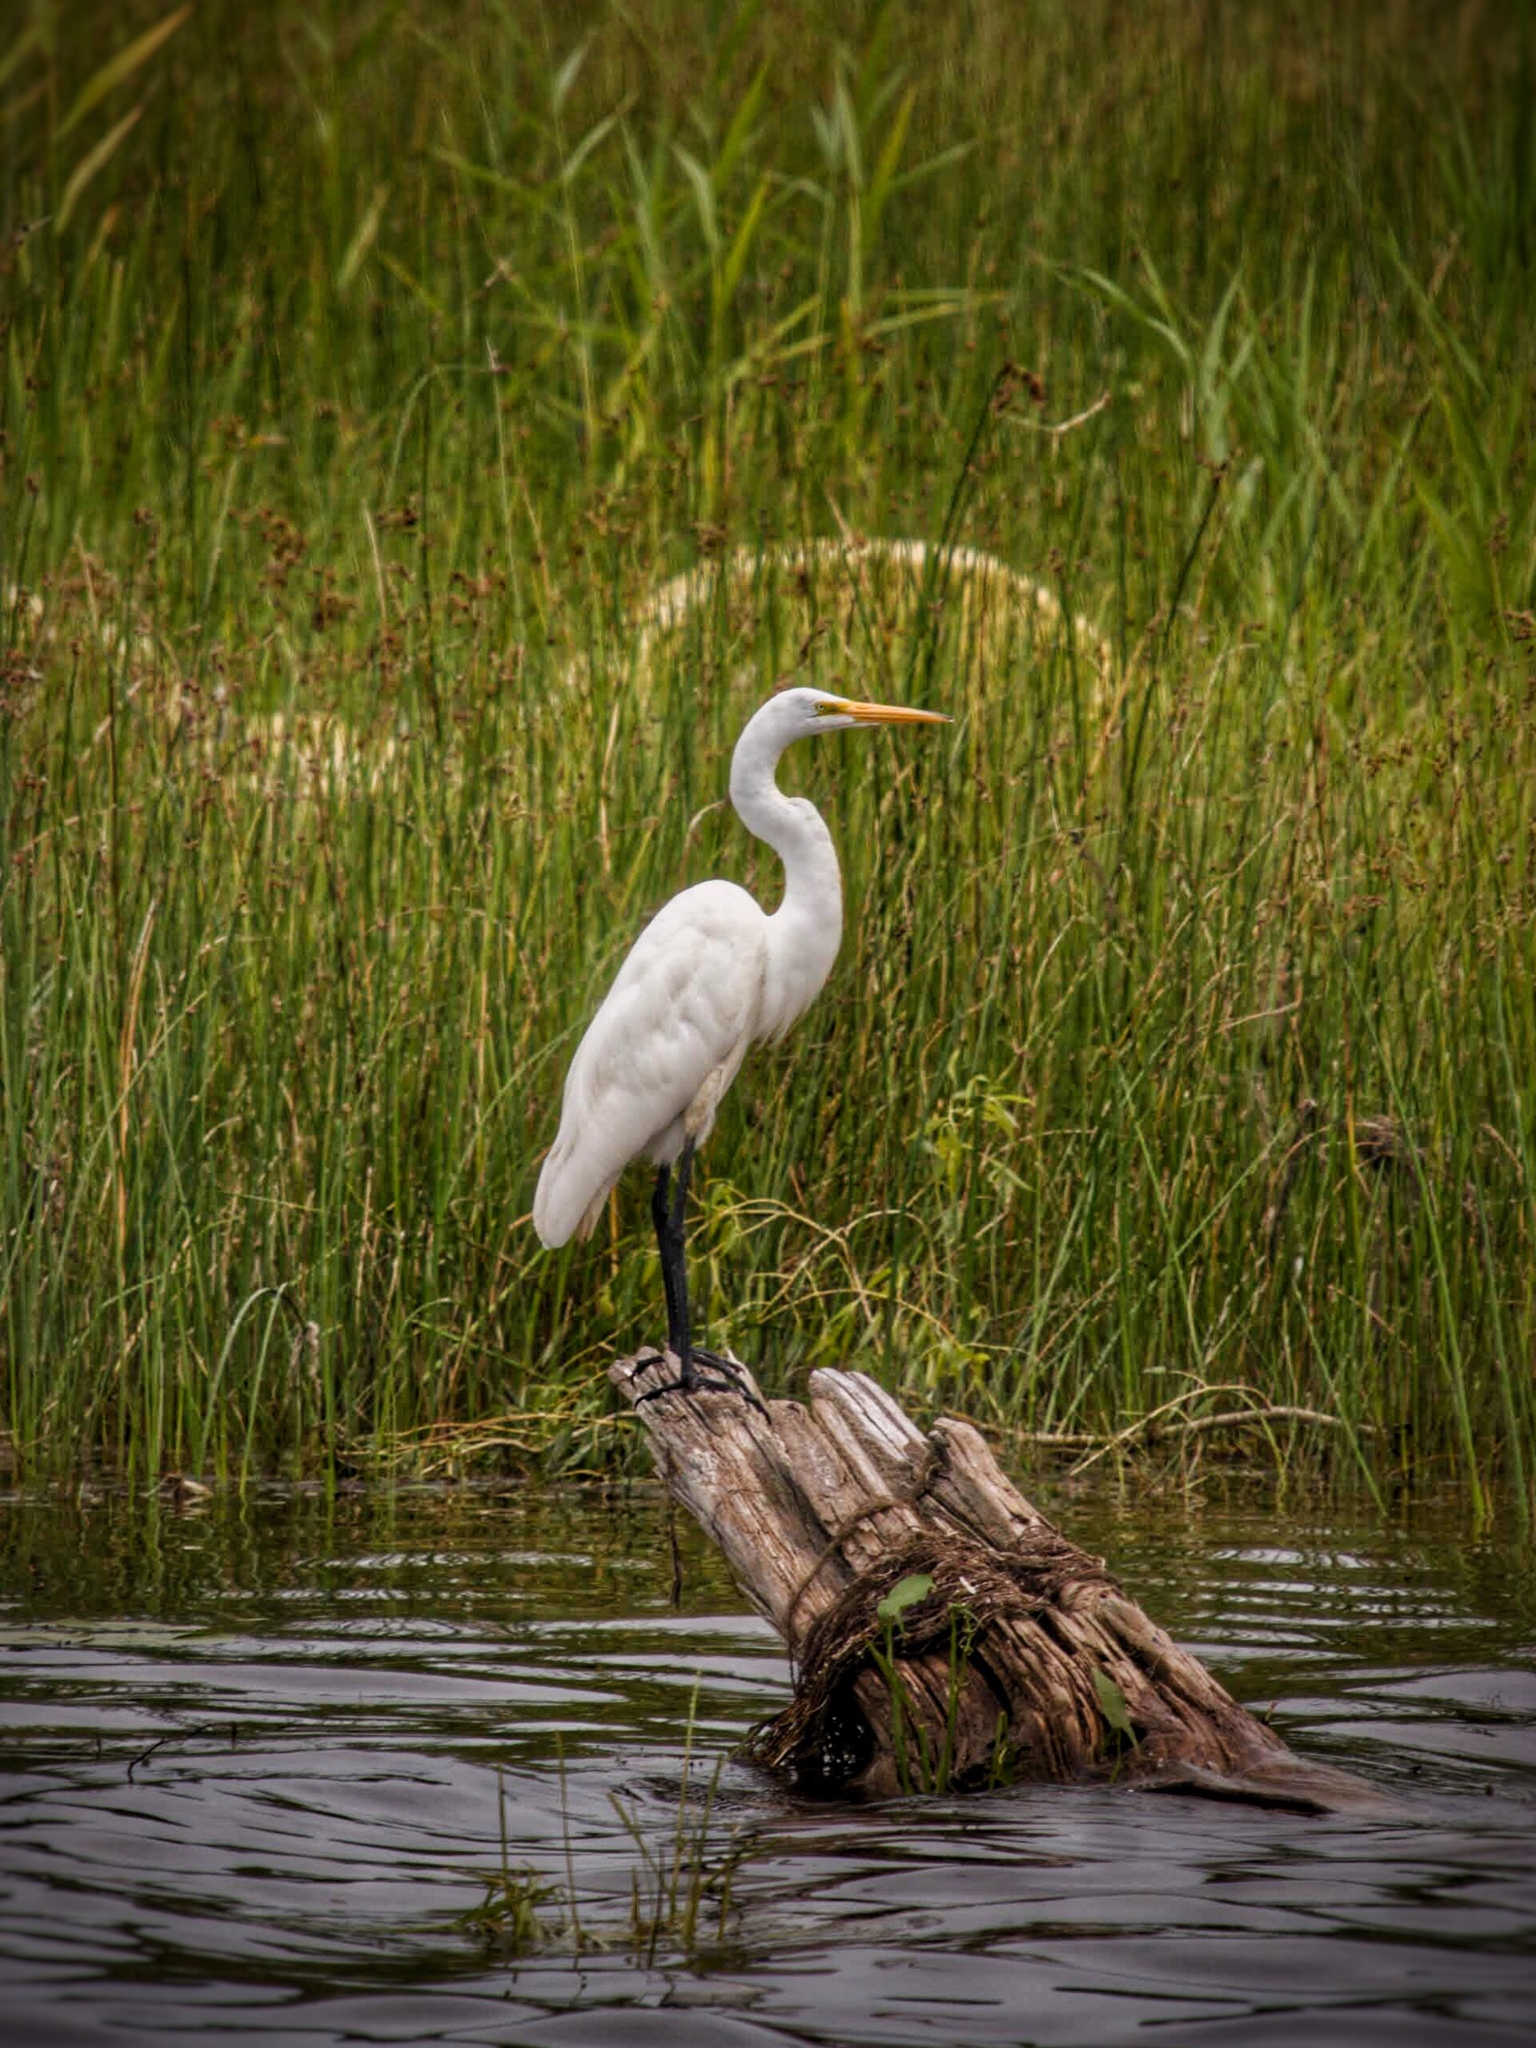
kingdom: Animalia
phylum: Chordata
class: Aves
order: Pelecaniformes
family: Ardeidae
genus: Ardea
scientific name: Ardea alba
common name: Great egret
